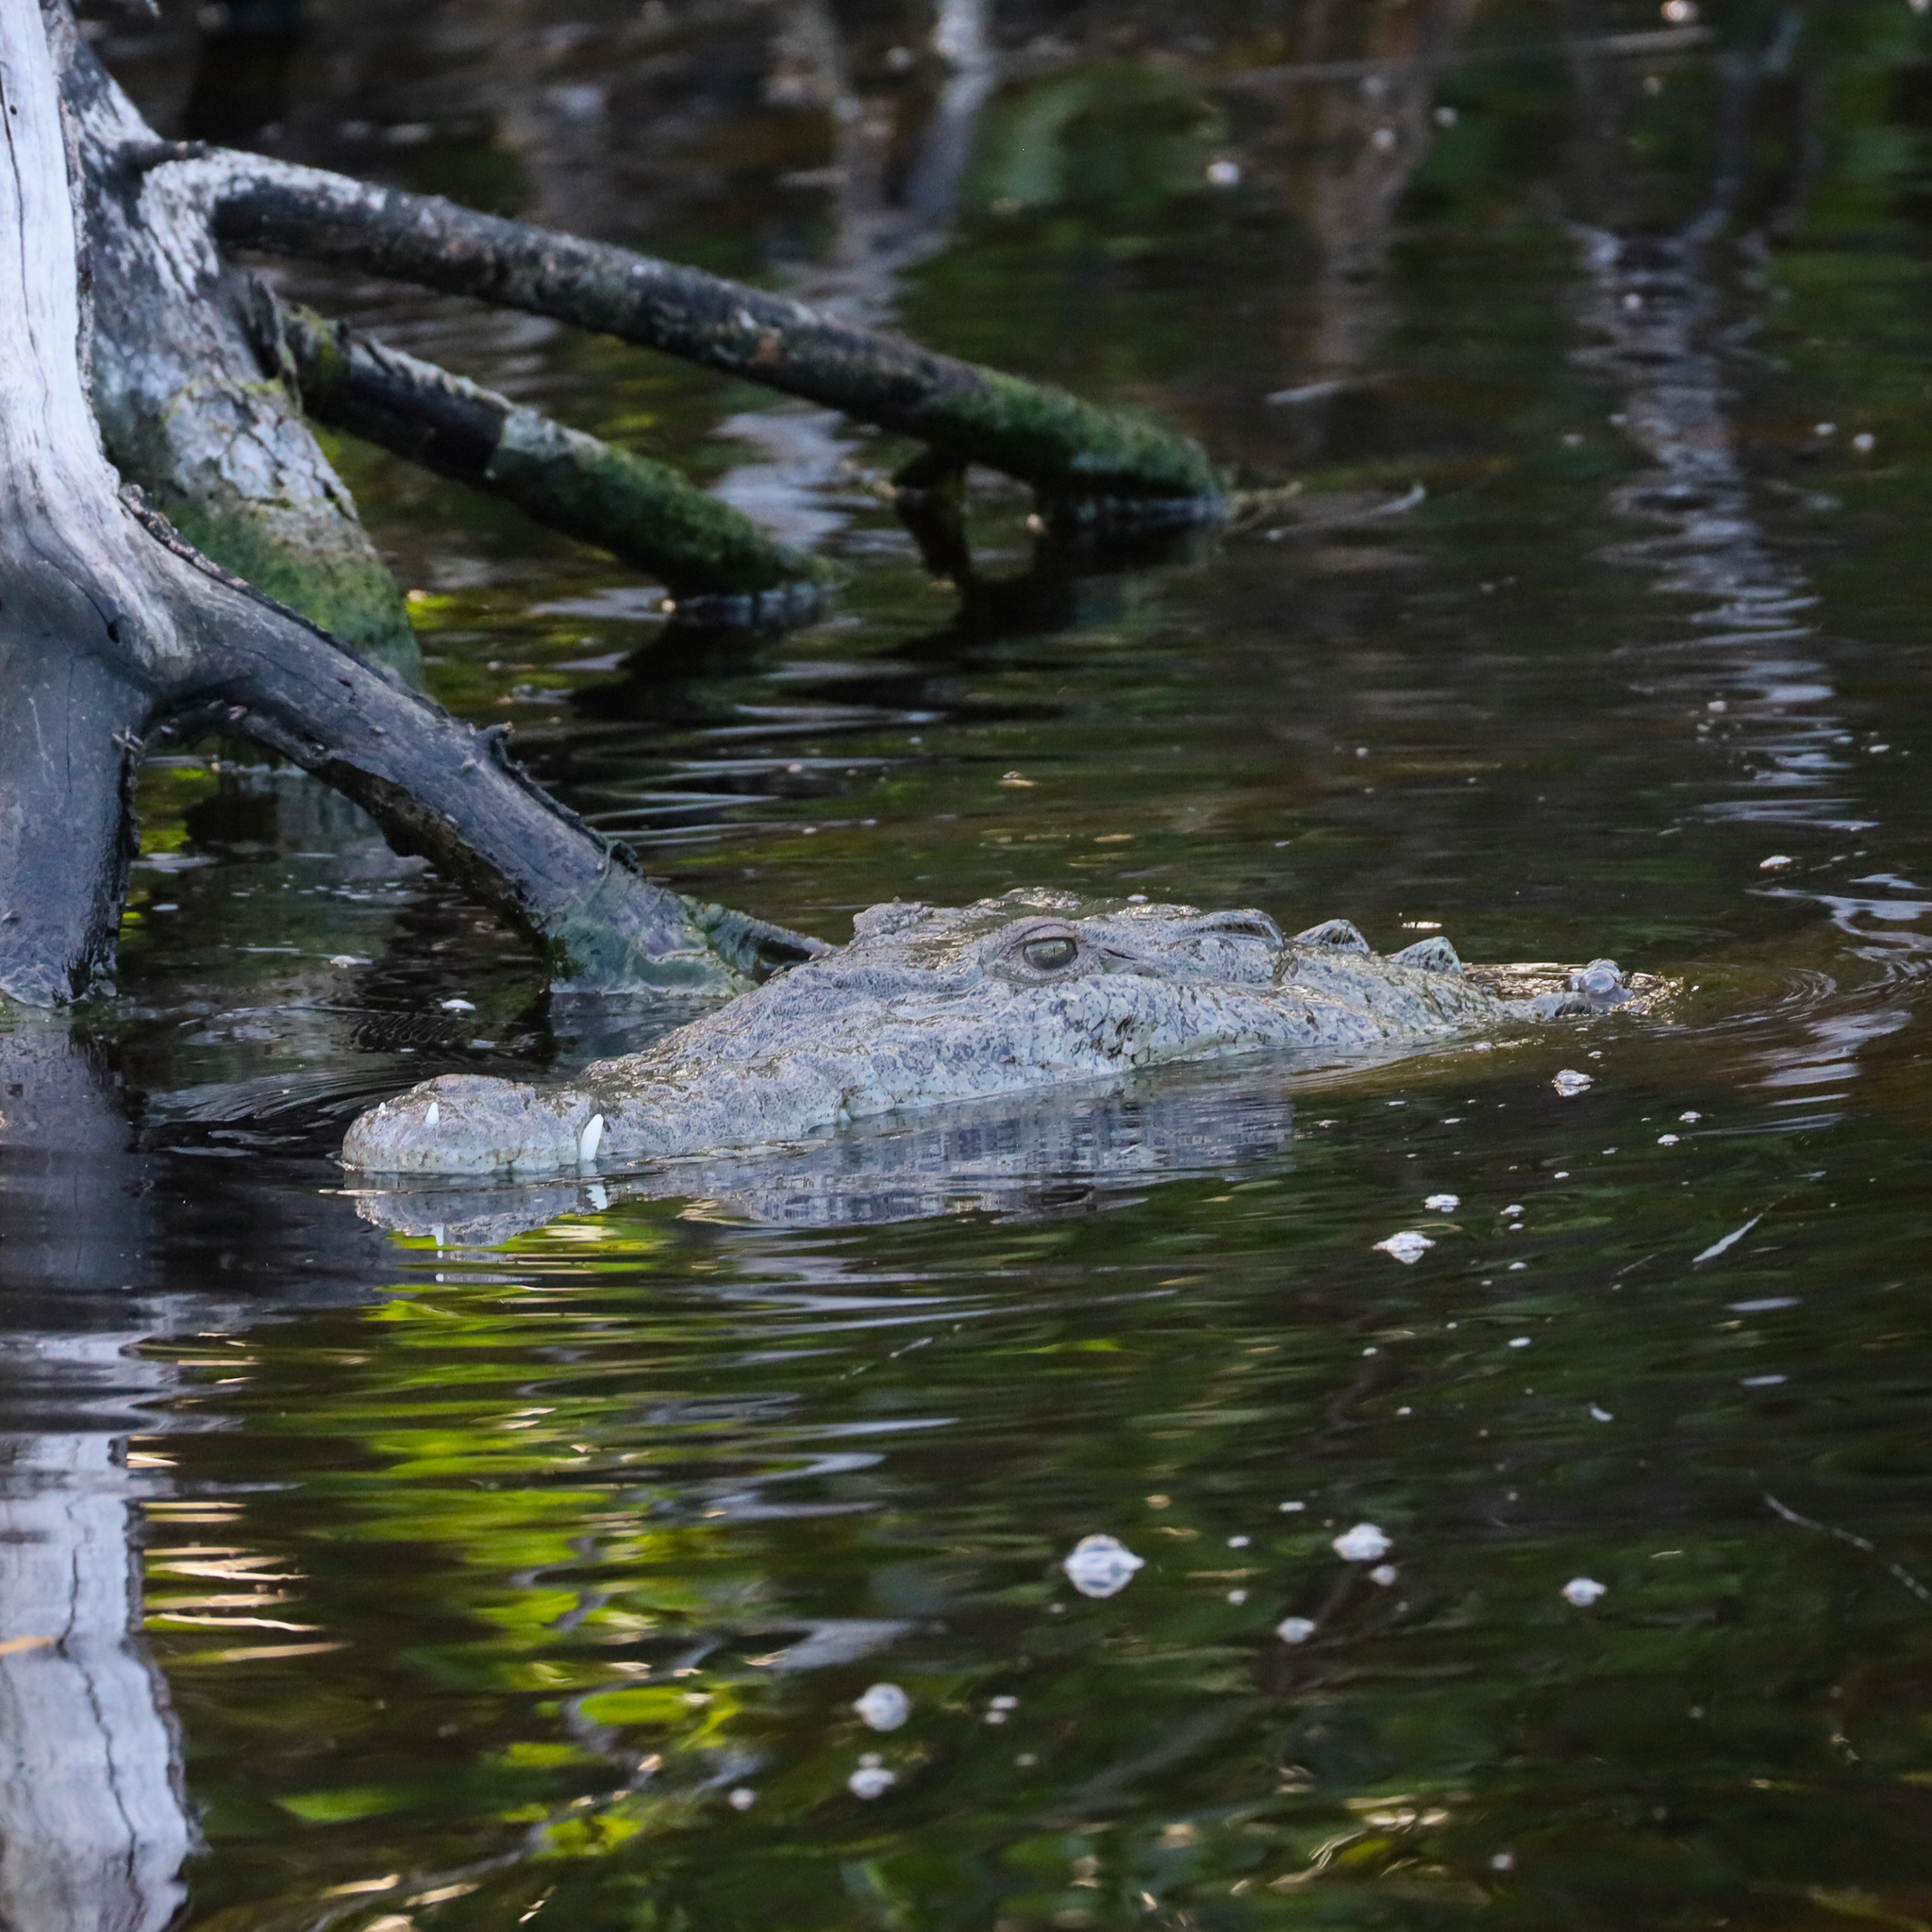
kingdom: Animalia
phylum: Chordata
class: Crocodylia
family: Crocodylidae
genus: Crocodylus
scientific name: Crocodylus acutus
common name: American crocodile
